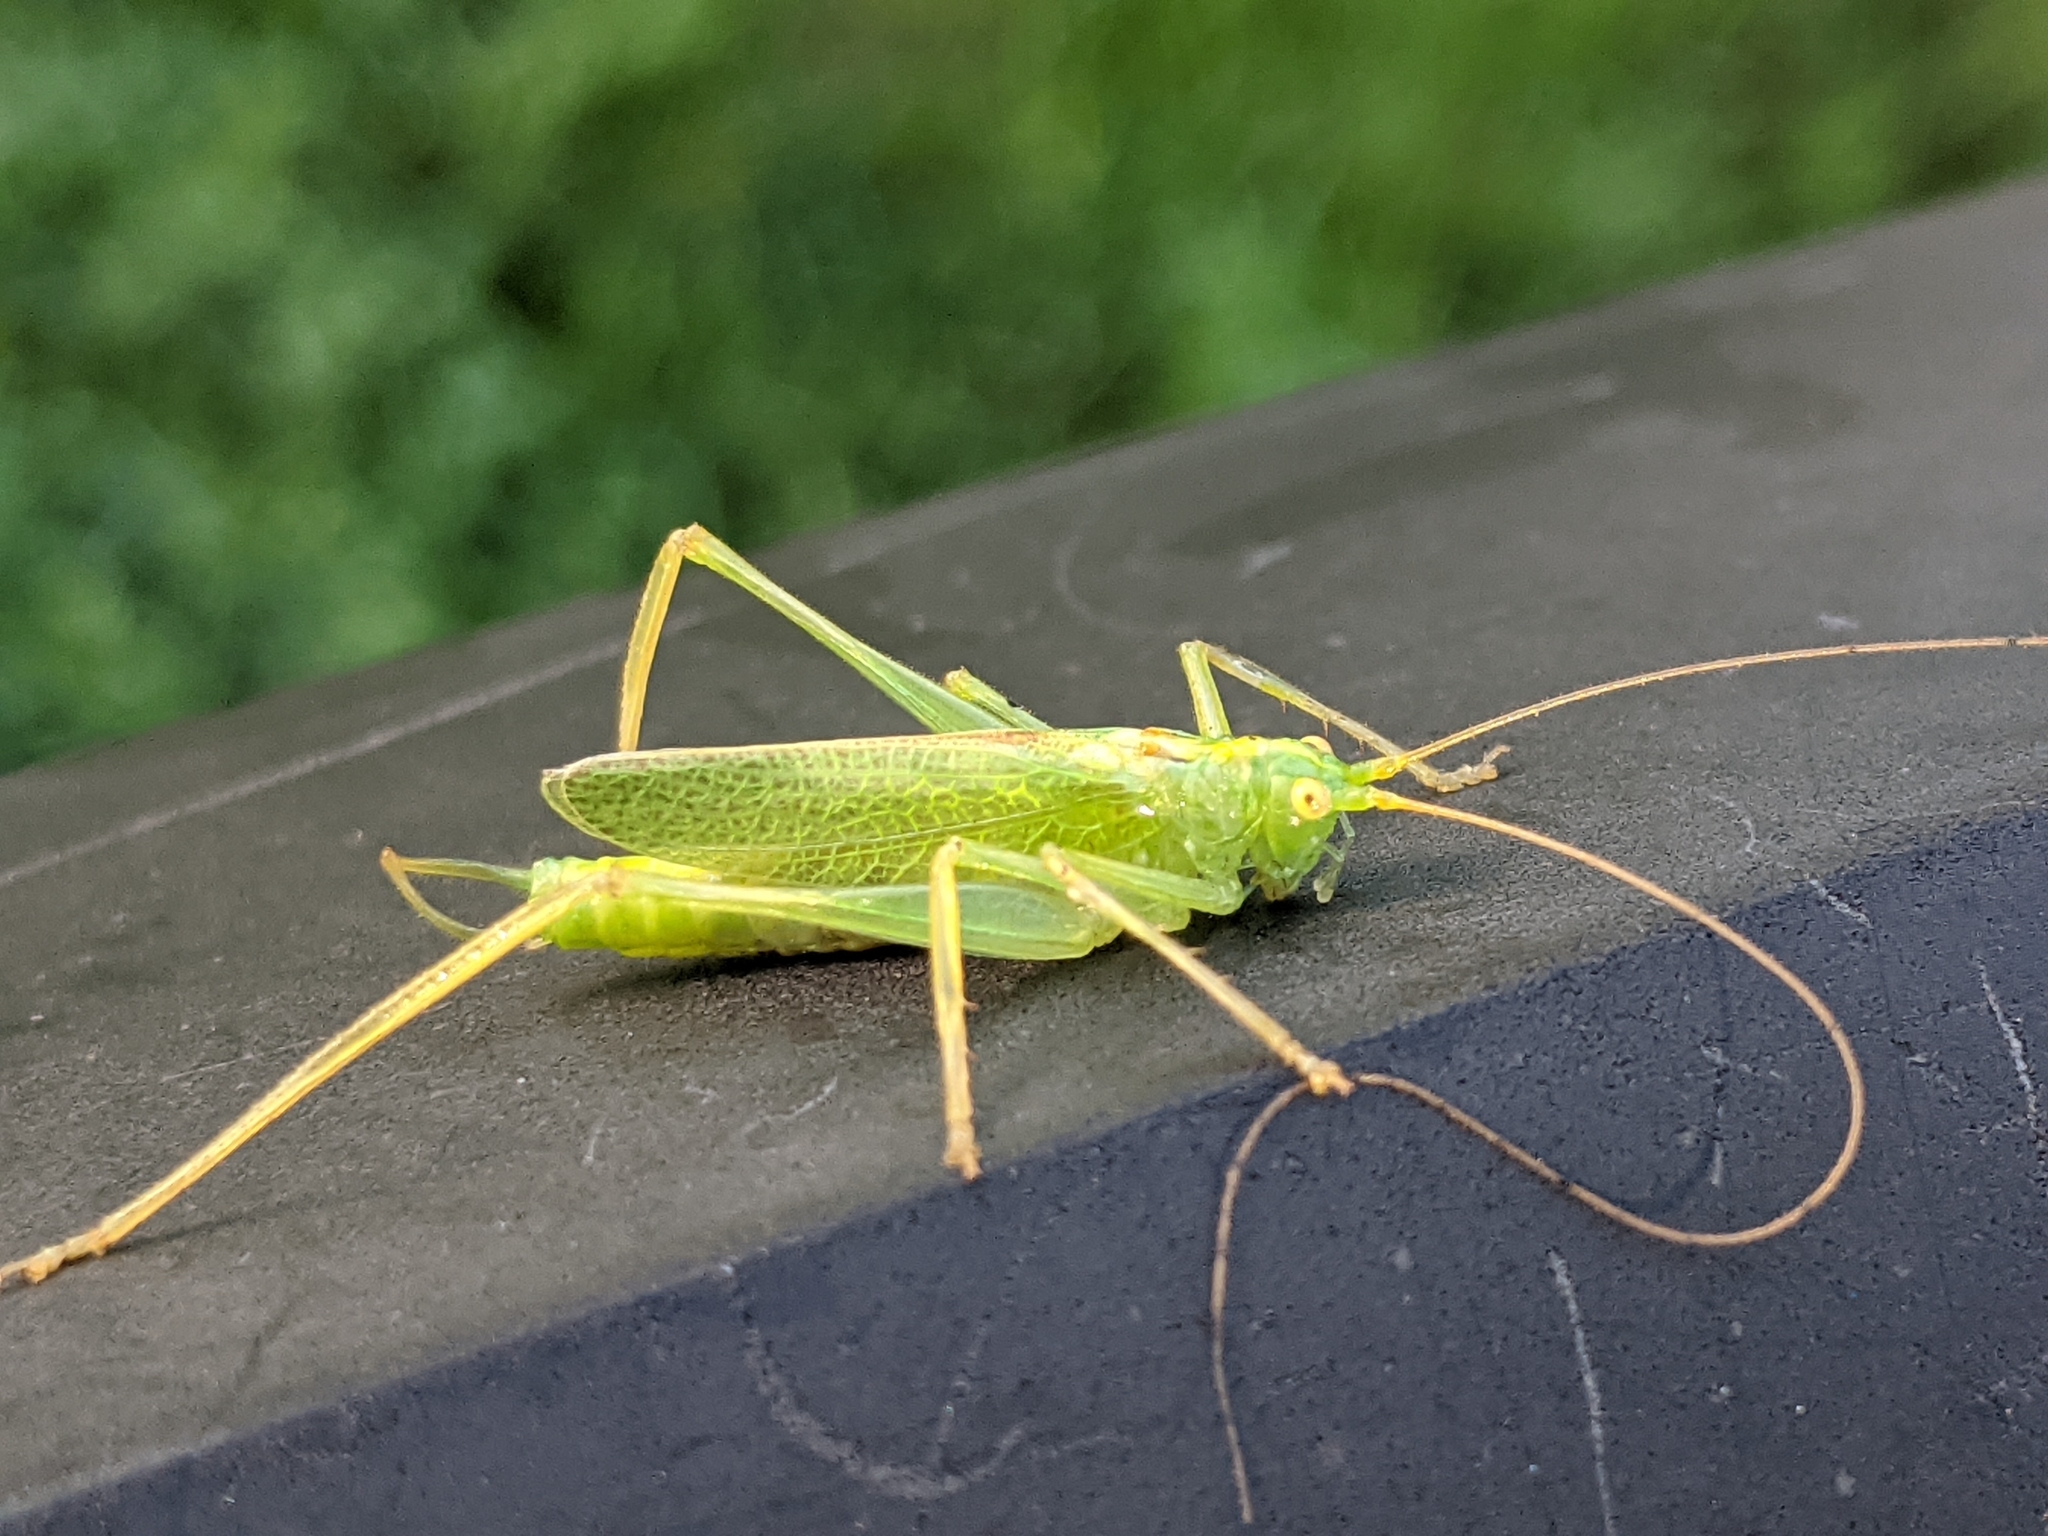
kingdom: Animalia
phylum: Arthropoda
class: Insecta
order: Orthoptera
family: Tettigoniidae
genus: Meconema
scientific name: Meconema thalassinum
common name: Oak bush-cricket
